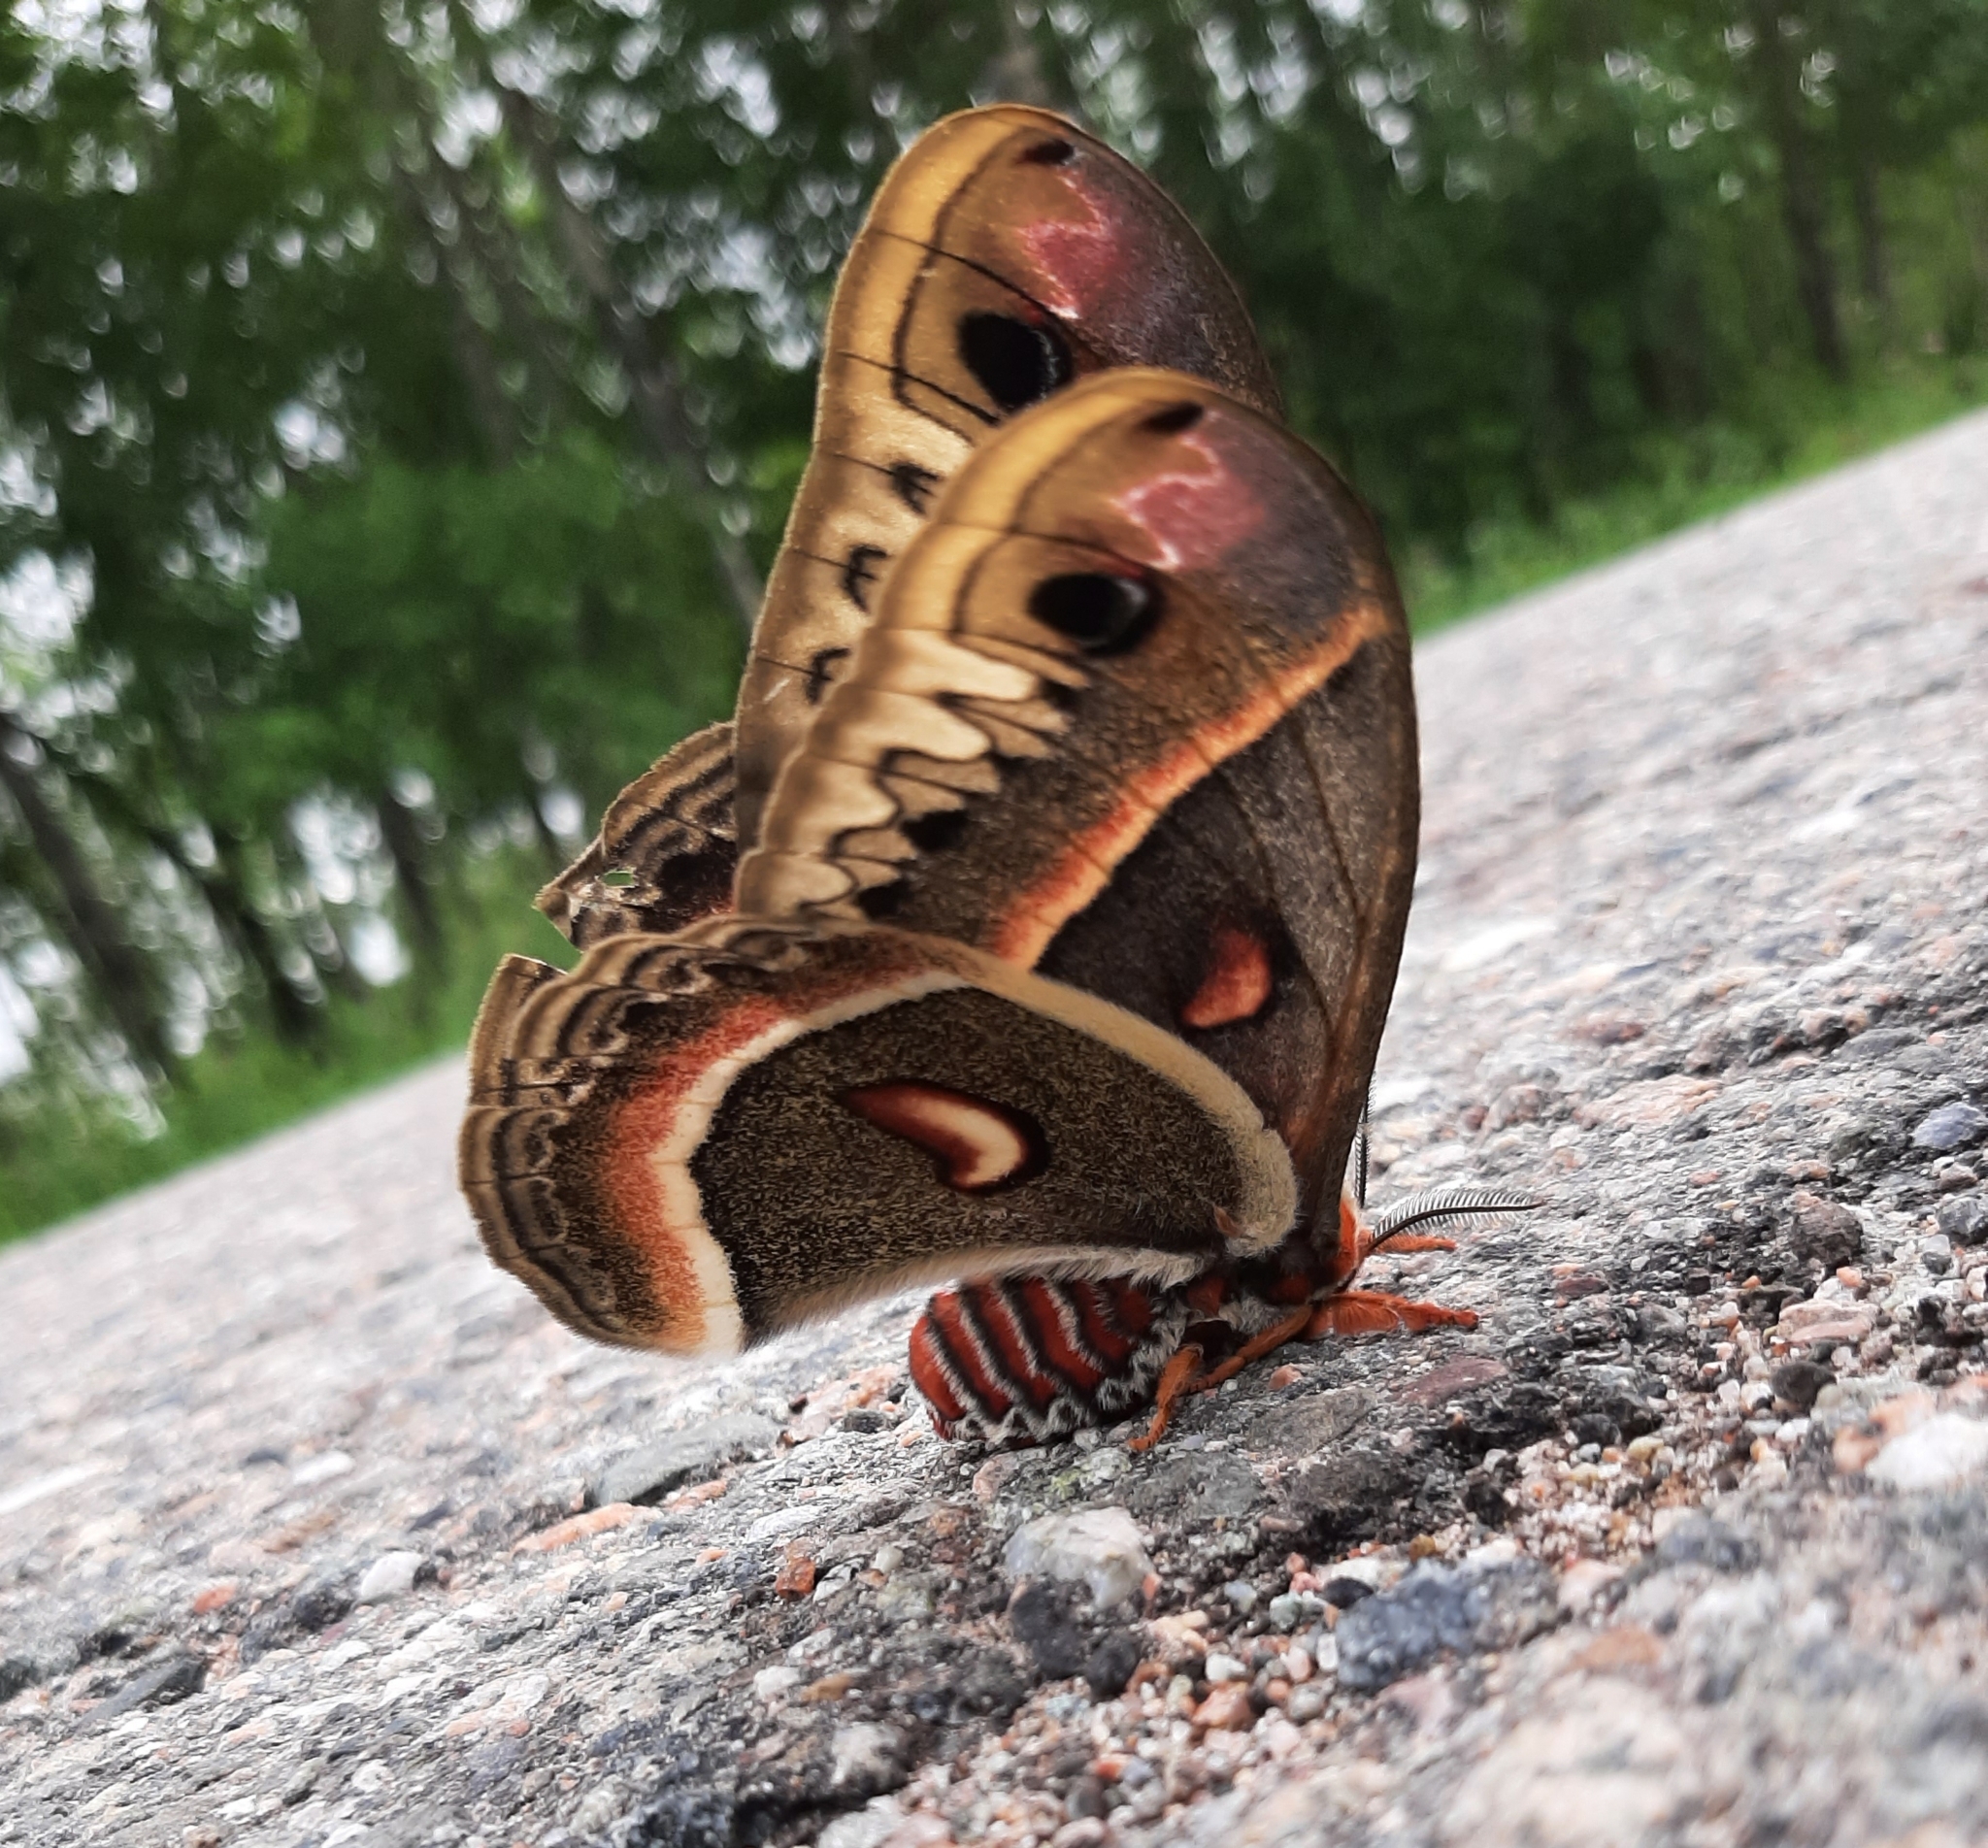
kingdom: Animalia
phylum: Arthropoda
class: Insecta
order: Lepidoptera
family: Saturniidae
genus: Hyalophora
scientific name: Hyalophora cecropia
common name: Cecropia silkmoth
